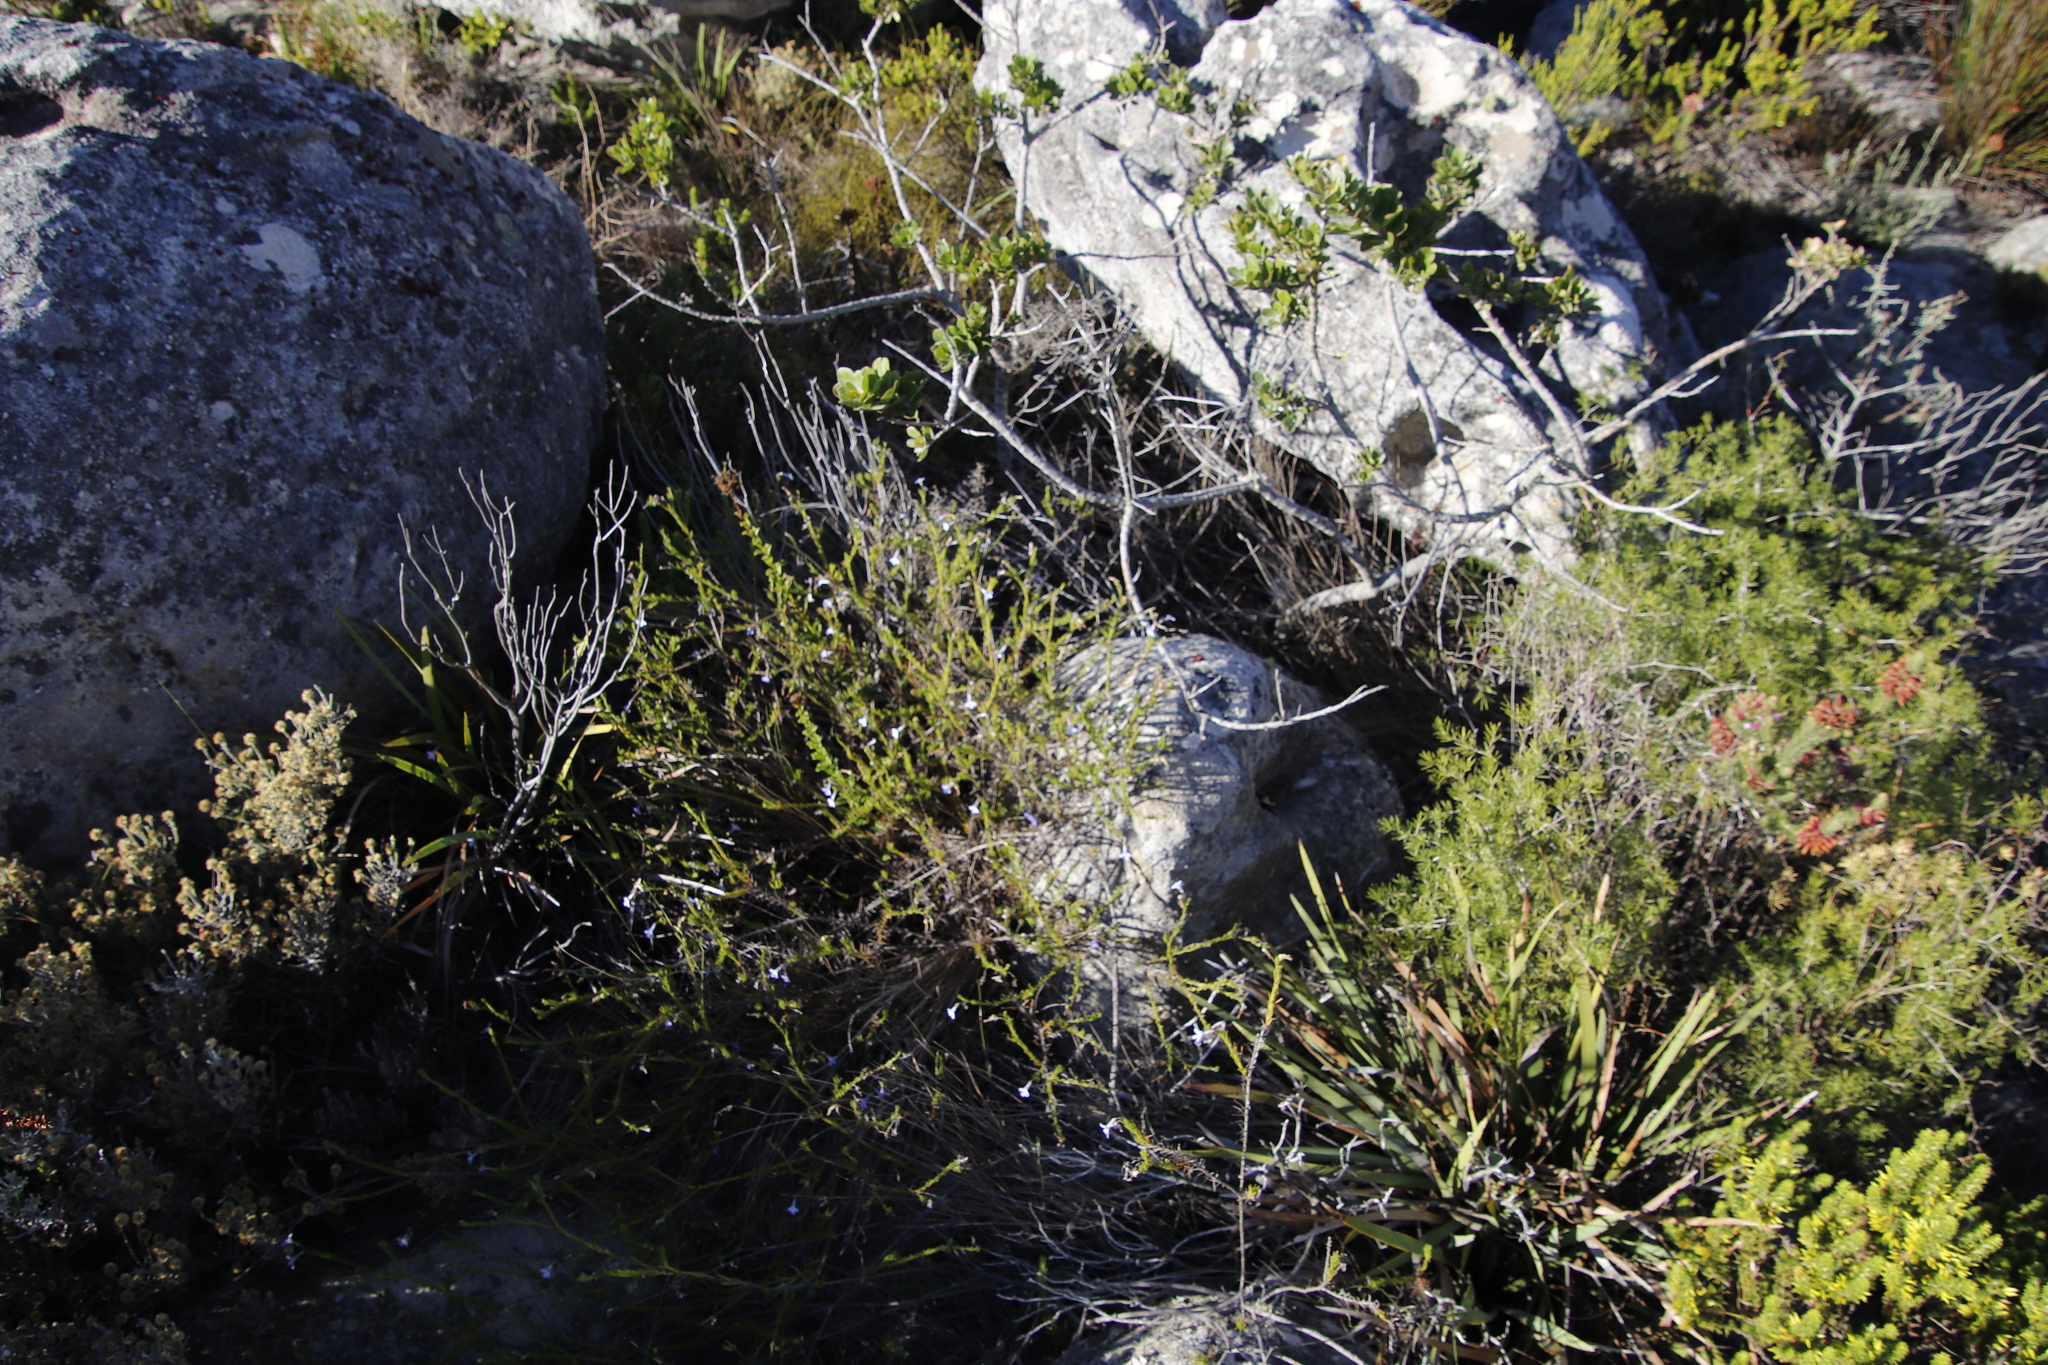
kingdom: Plantae
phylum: Tracheophyta
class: Magnoliopsida
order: Asterales
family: Campanulaceae
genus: Lobelia
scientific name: Lobelia pinifolia
